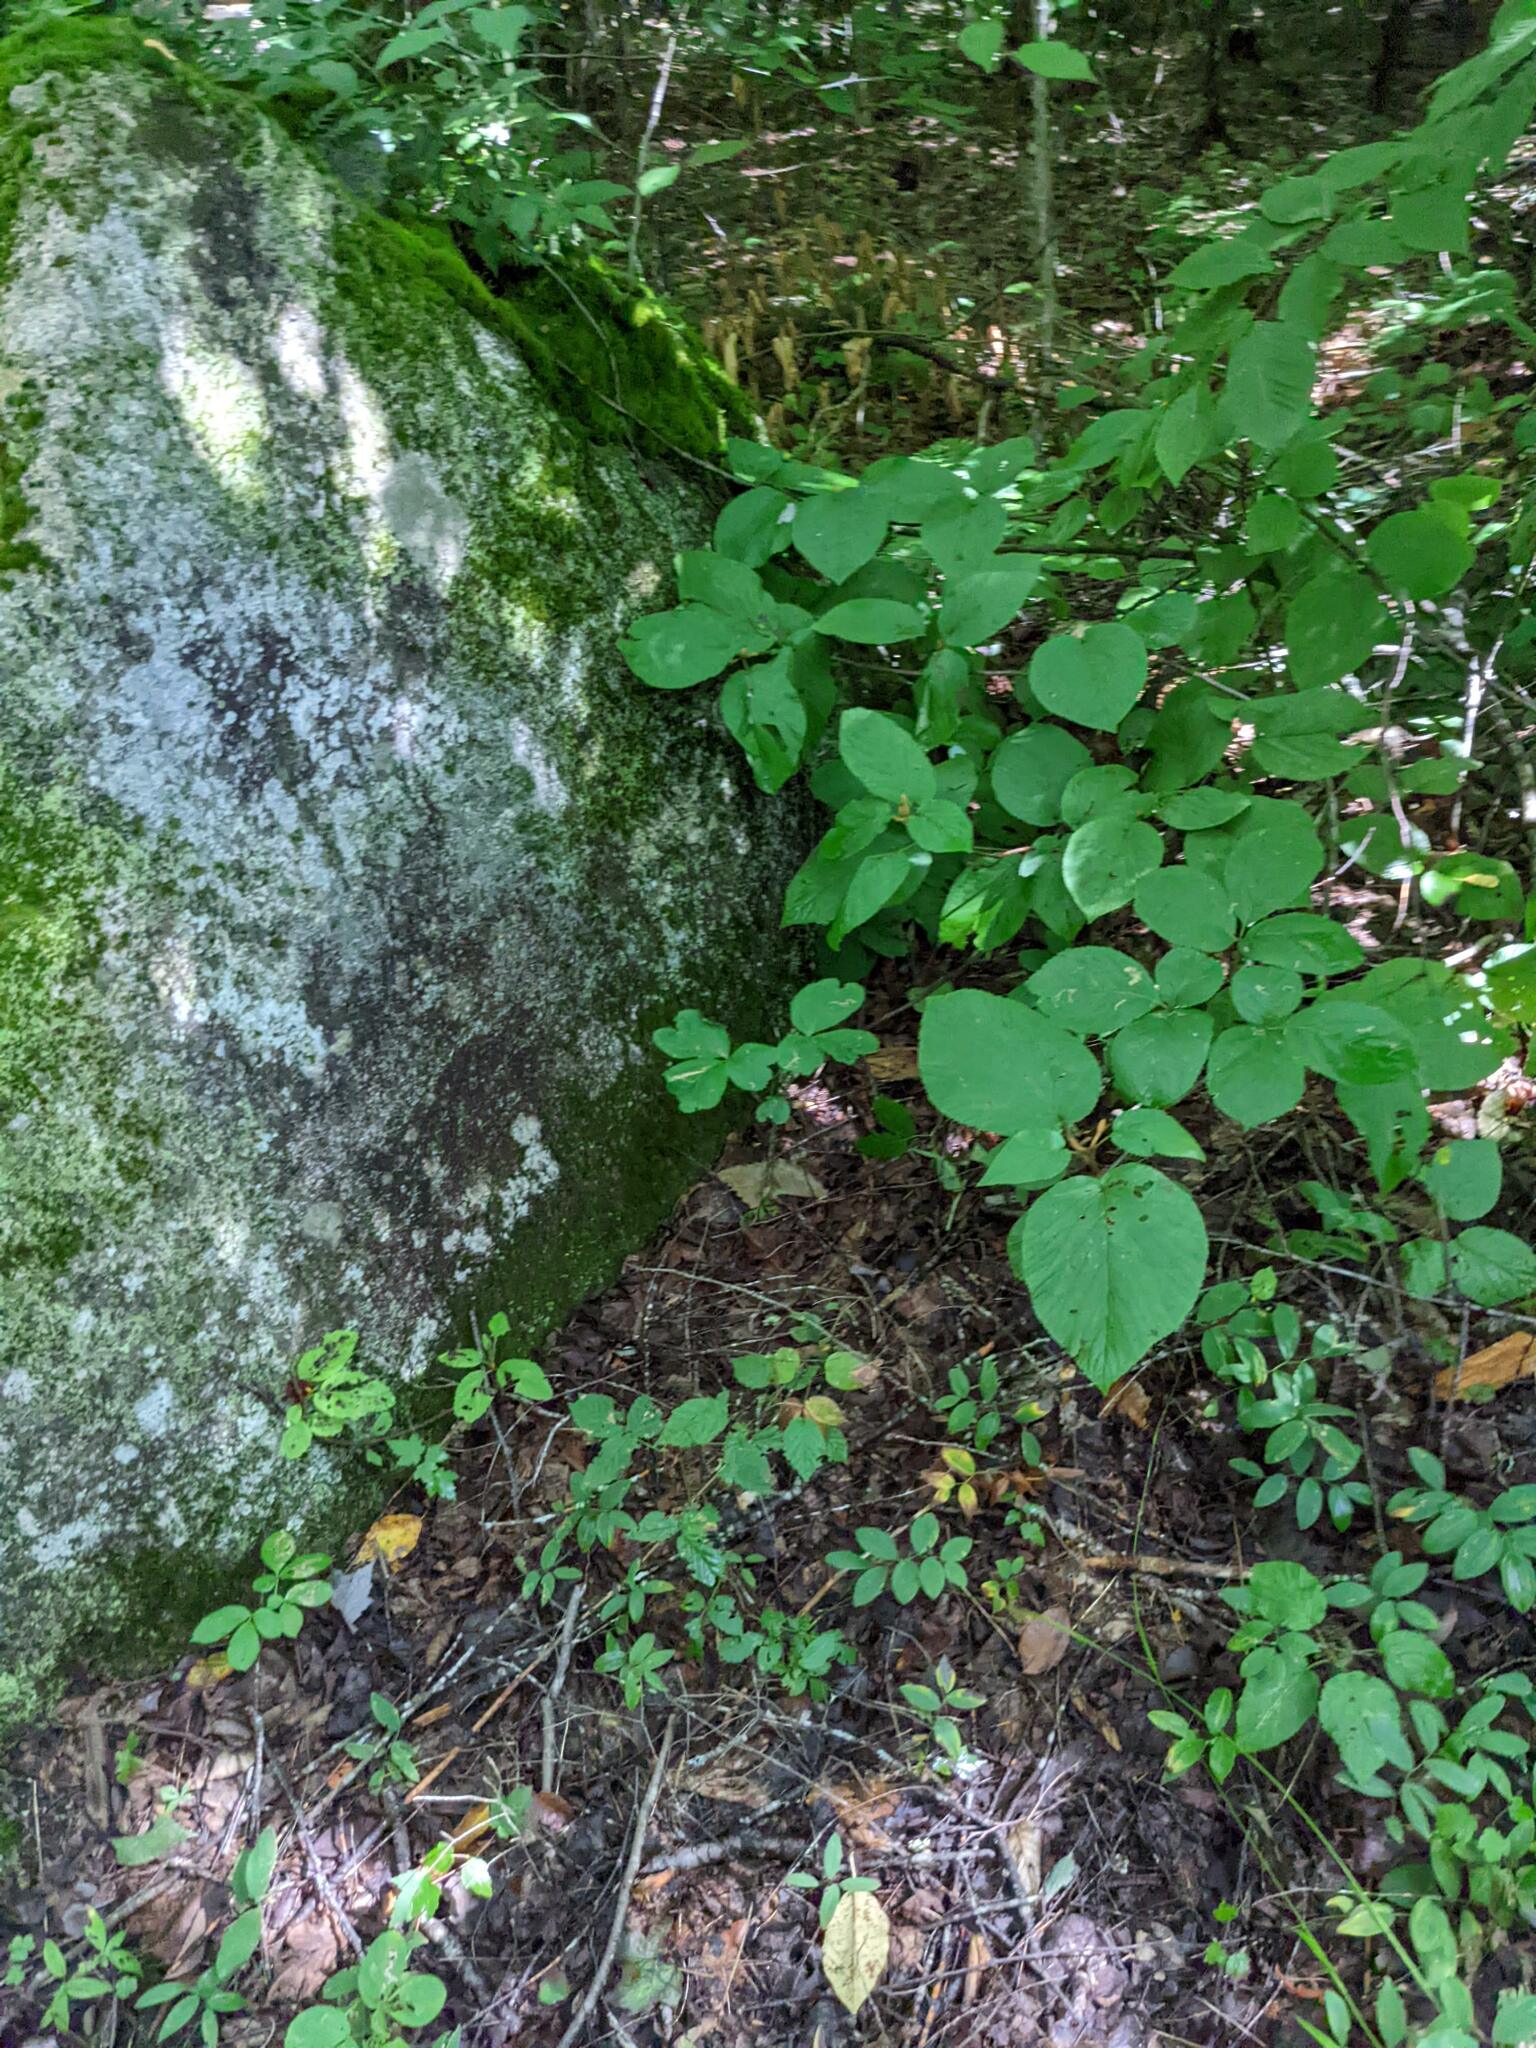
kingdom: Plantae
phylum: Tracheophyta
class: Magnoliopsida
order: Dipsacales
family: Viburnaceae
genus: Viburnum
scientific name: Viburnum lantanoides
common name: Hobblebush
